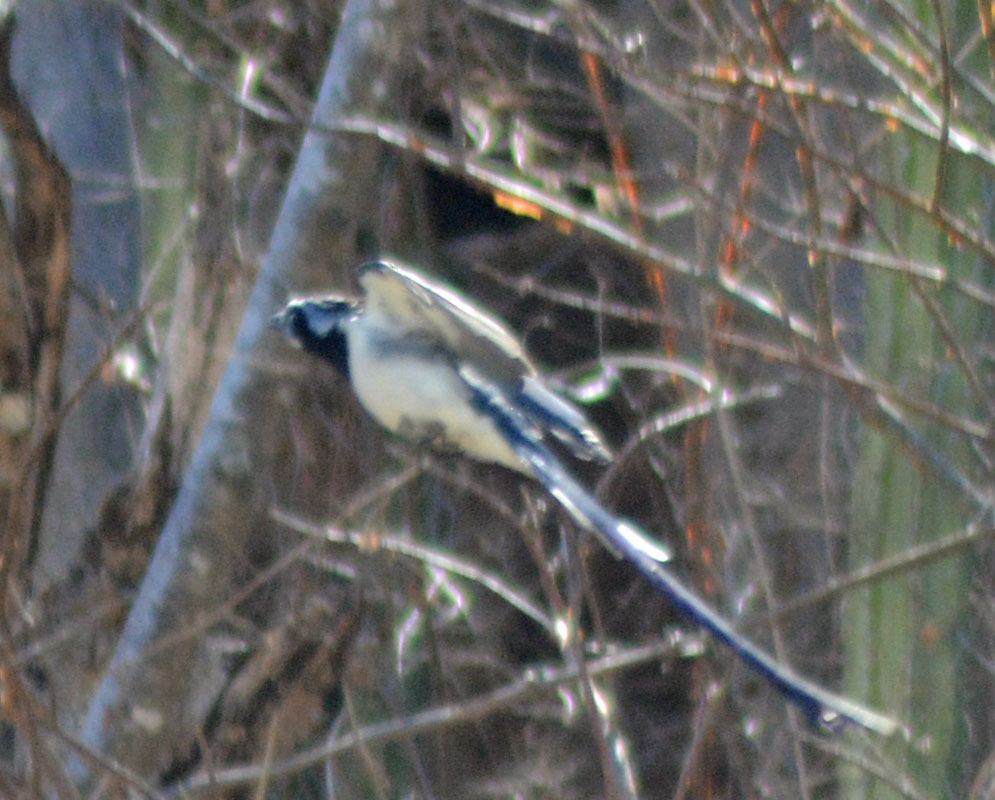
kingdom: Animalia
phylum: Chordata
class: Aves
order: Passeriformes
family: Corvidae
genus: Calocitta
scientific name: Calocitta colliei
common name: Black-throated magpie-jay
